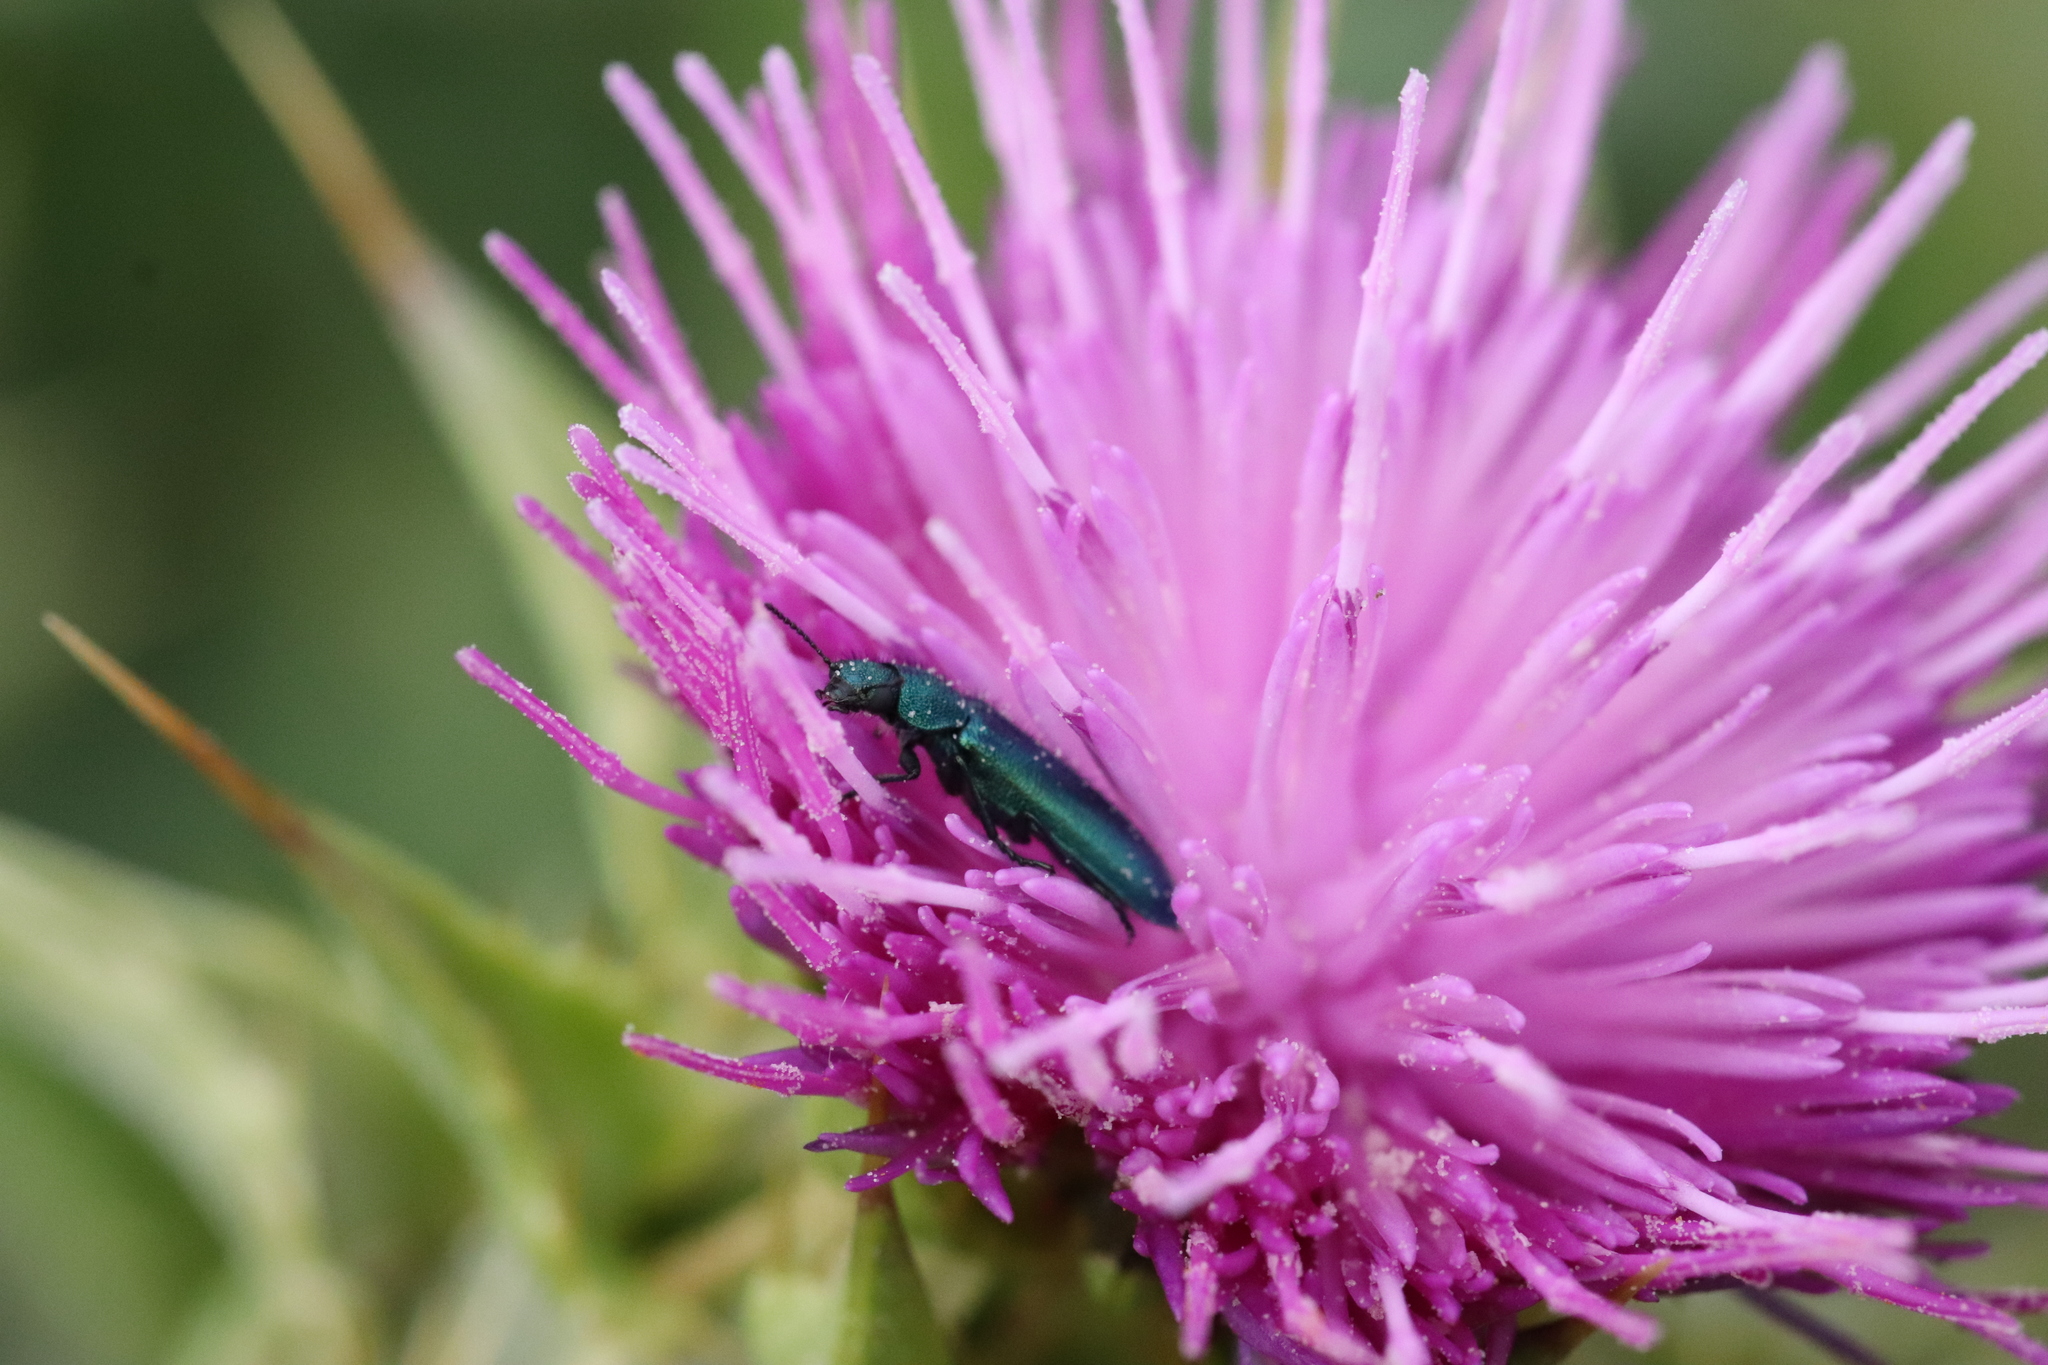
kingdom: Animalia
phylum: Arthropoda
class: Insecta
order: Coleoptera
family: Dasytidae
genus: Psilothrix
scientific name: Psilothrix viridicoerulea
